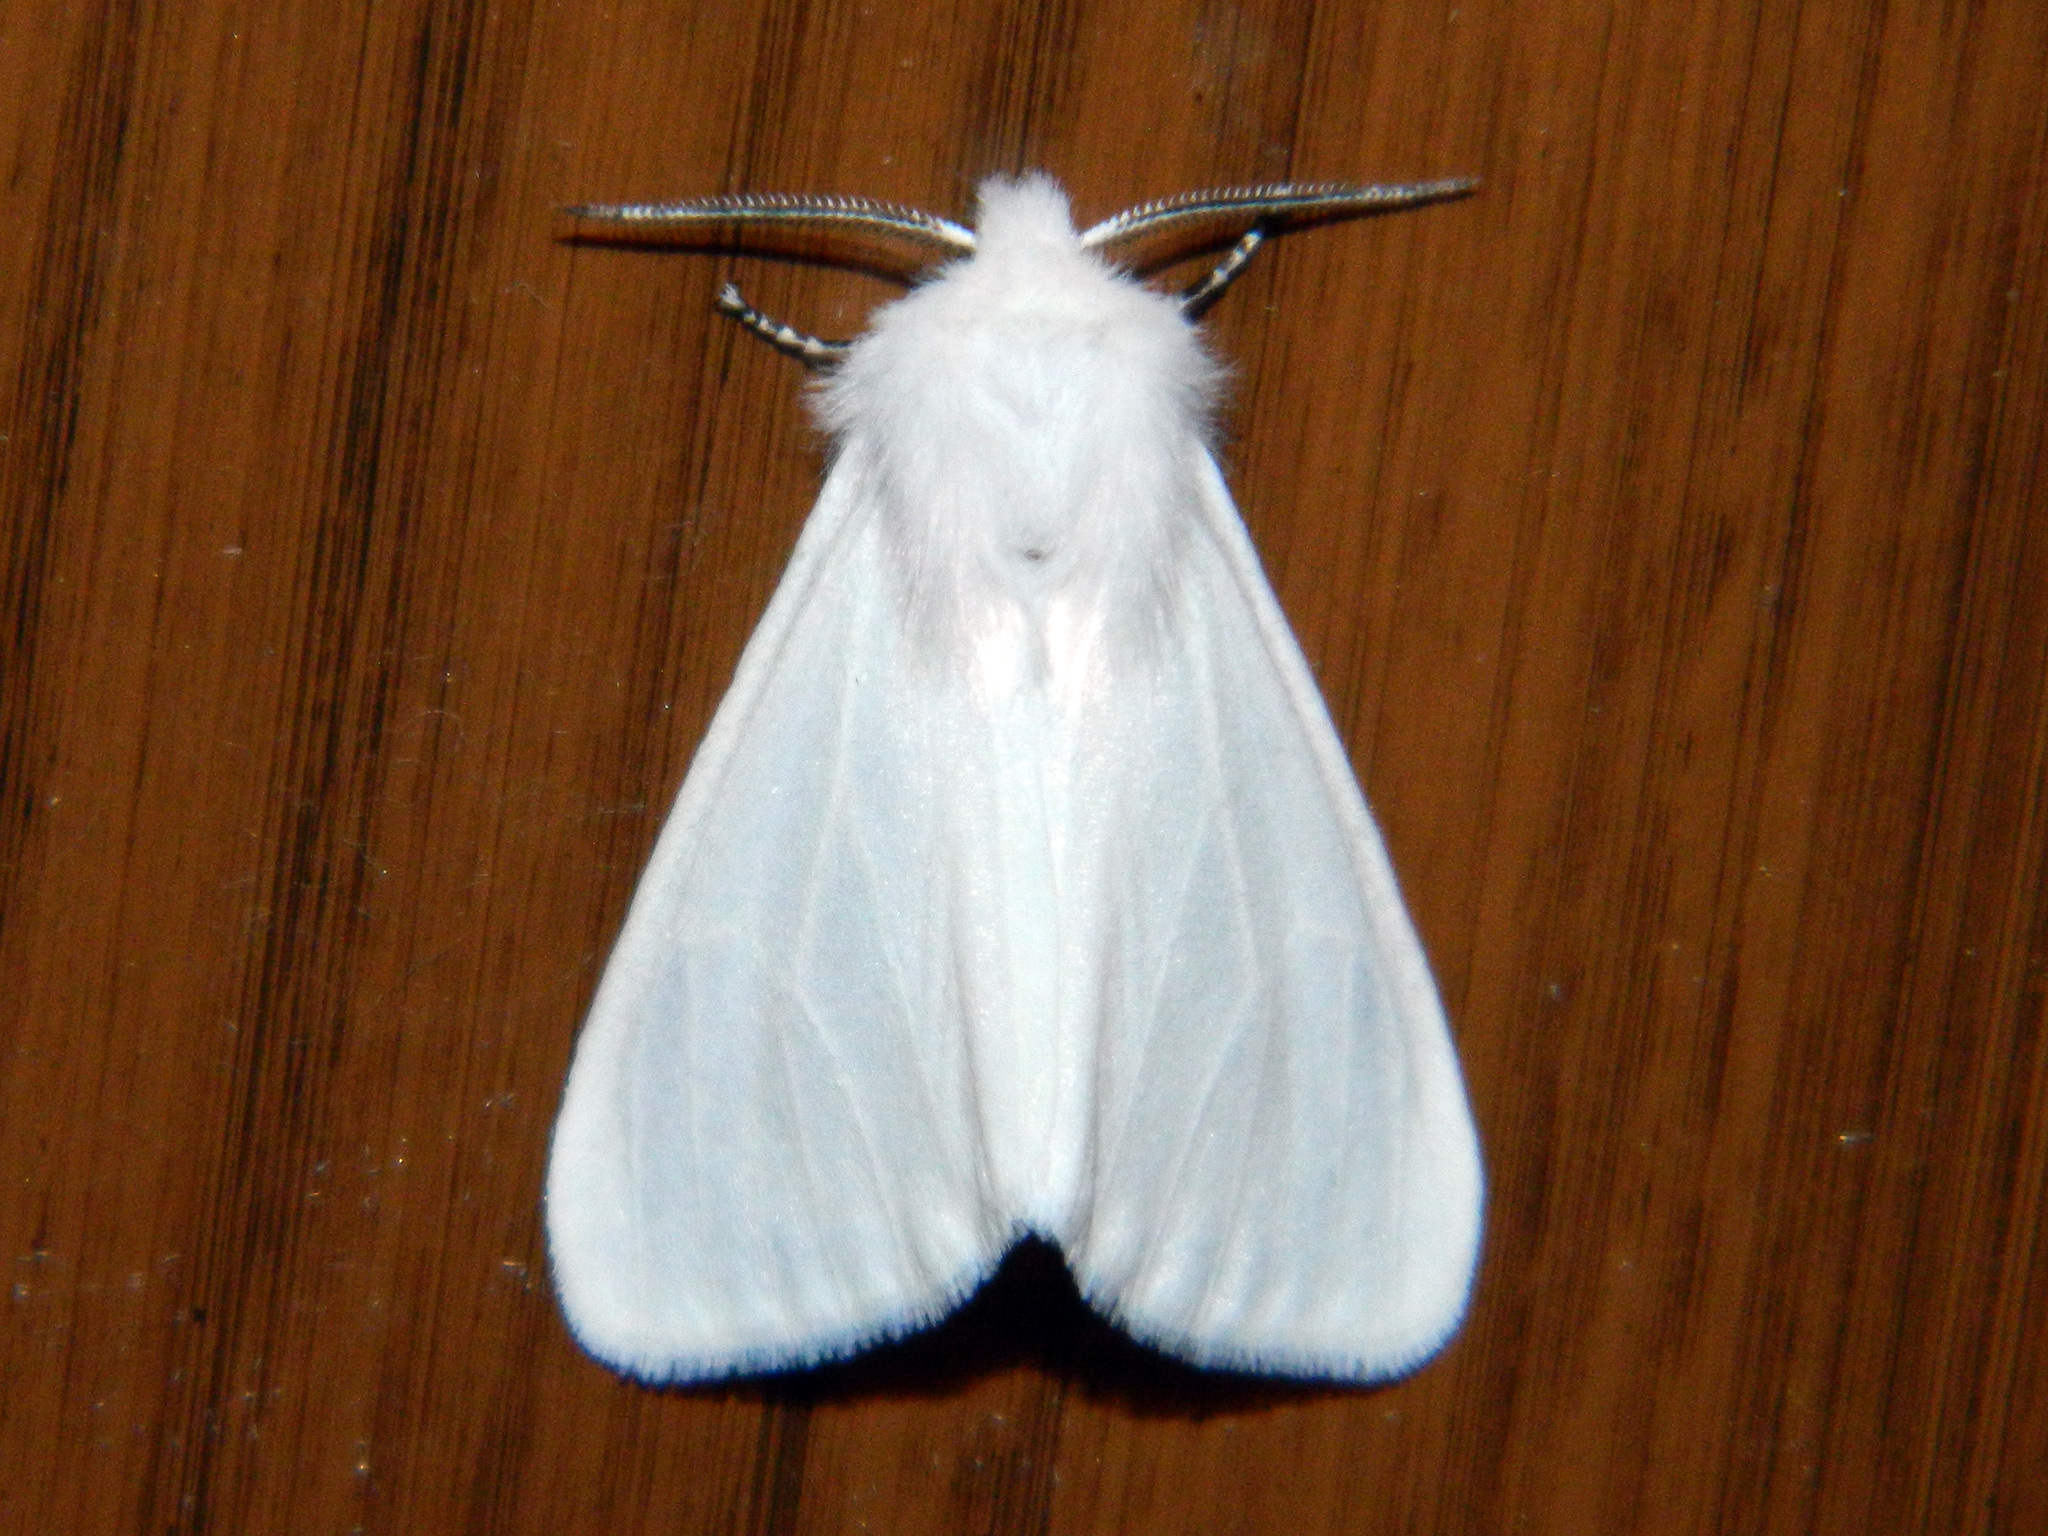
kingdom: Animalia
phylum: Arthropoda
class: Insecta
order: Lepidoptera
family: Erebidae
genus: Hyphantria
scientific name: Hyphantria cunea
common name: American white moth
